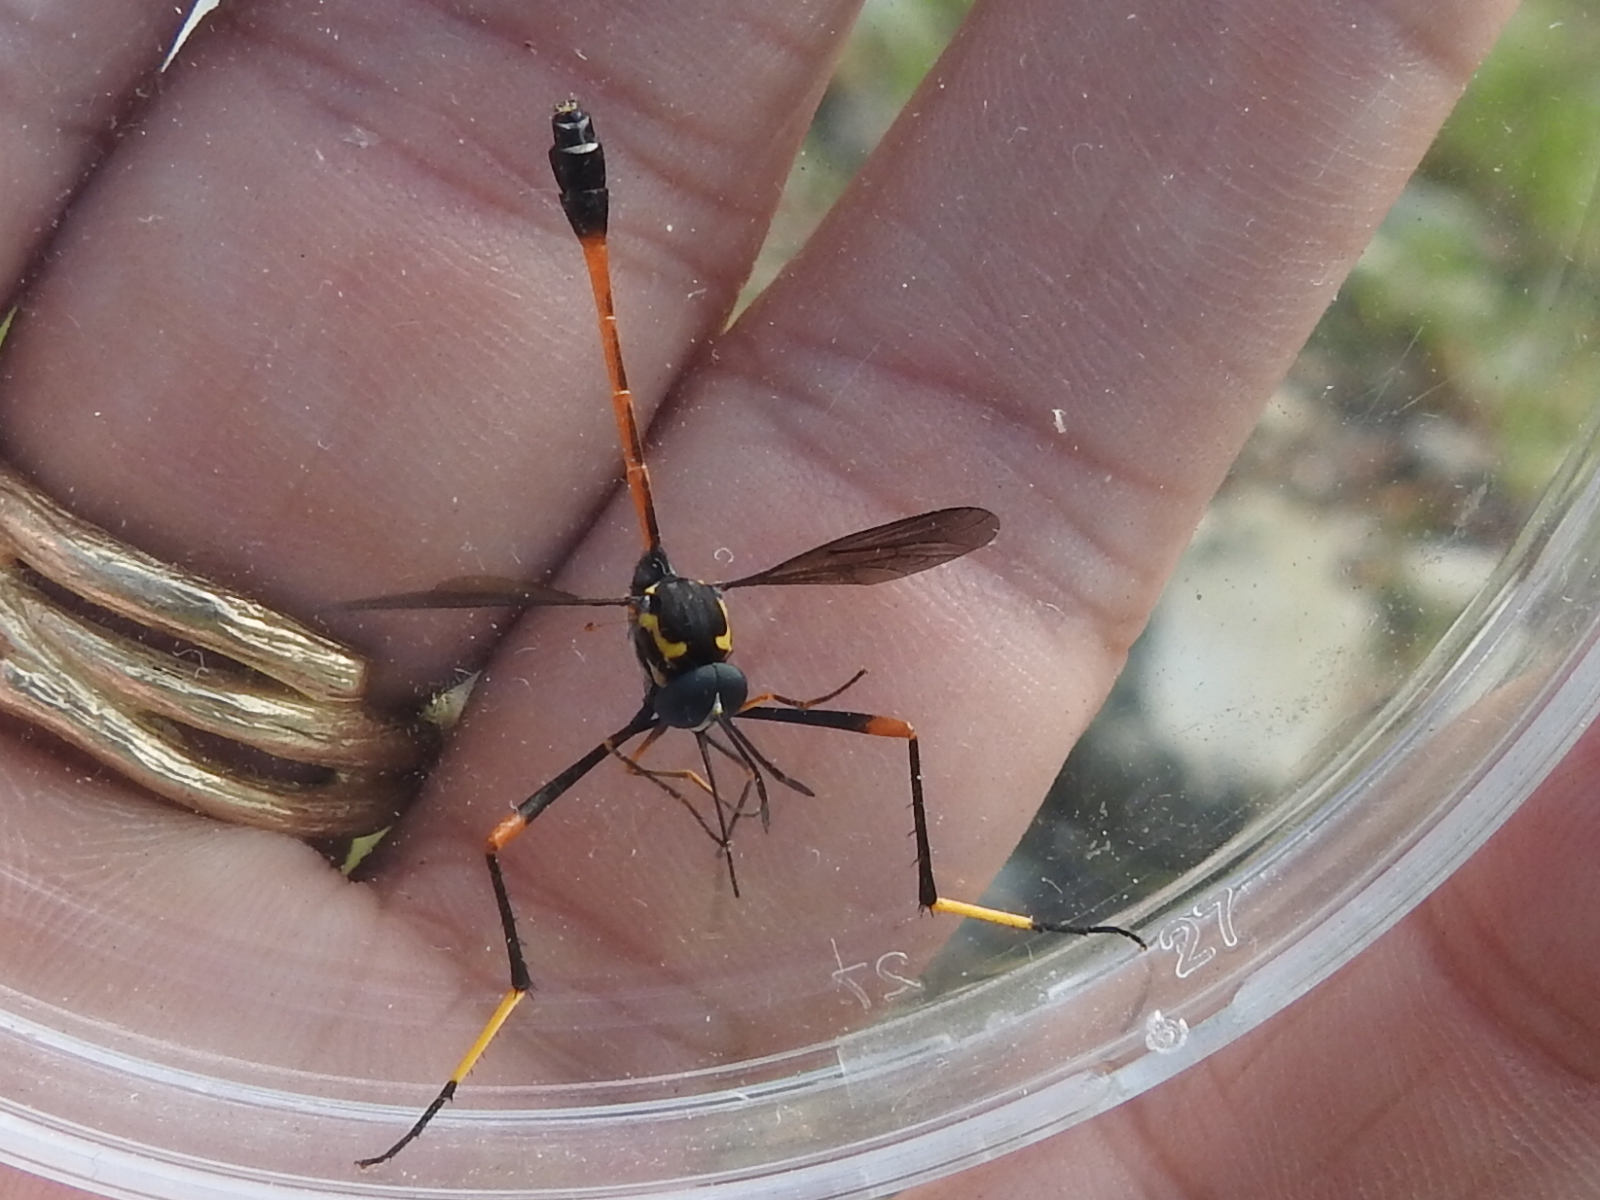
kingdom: Animalia
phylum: Arthropoda
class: Insecta
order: Diptera
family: Bombyliidae
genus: Systropus
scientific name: Systropus arizonicus
